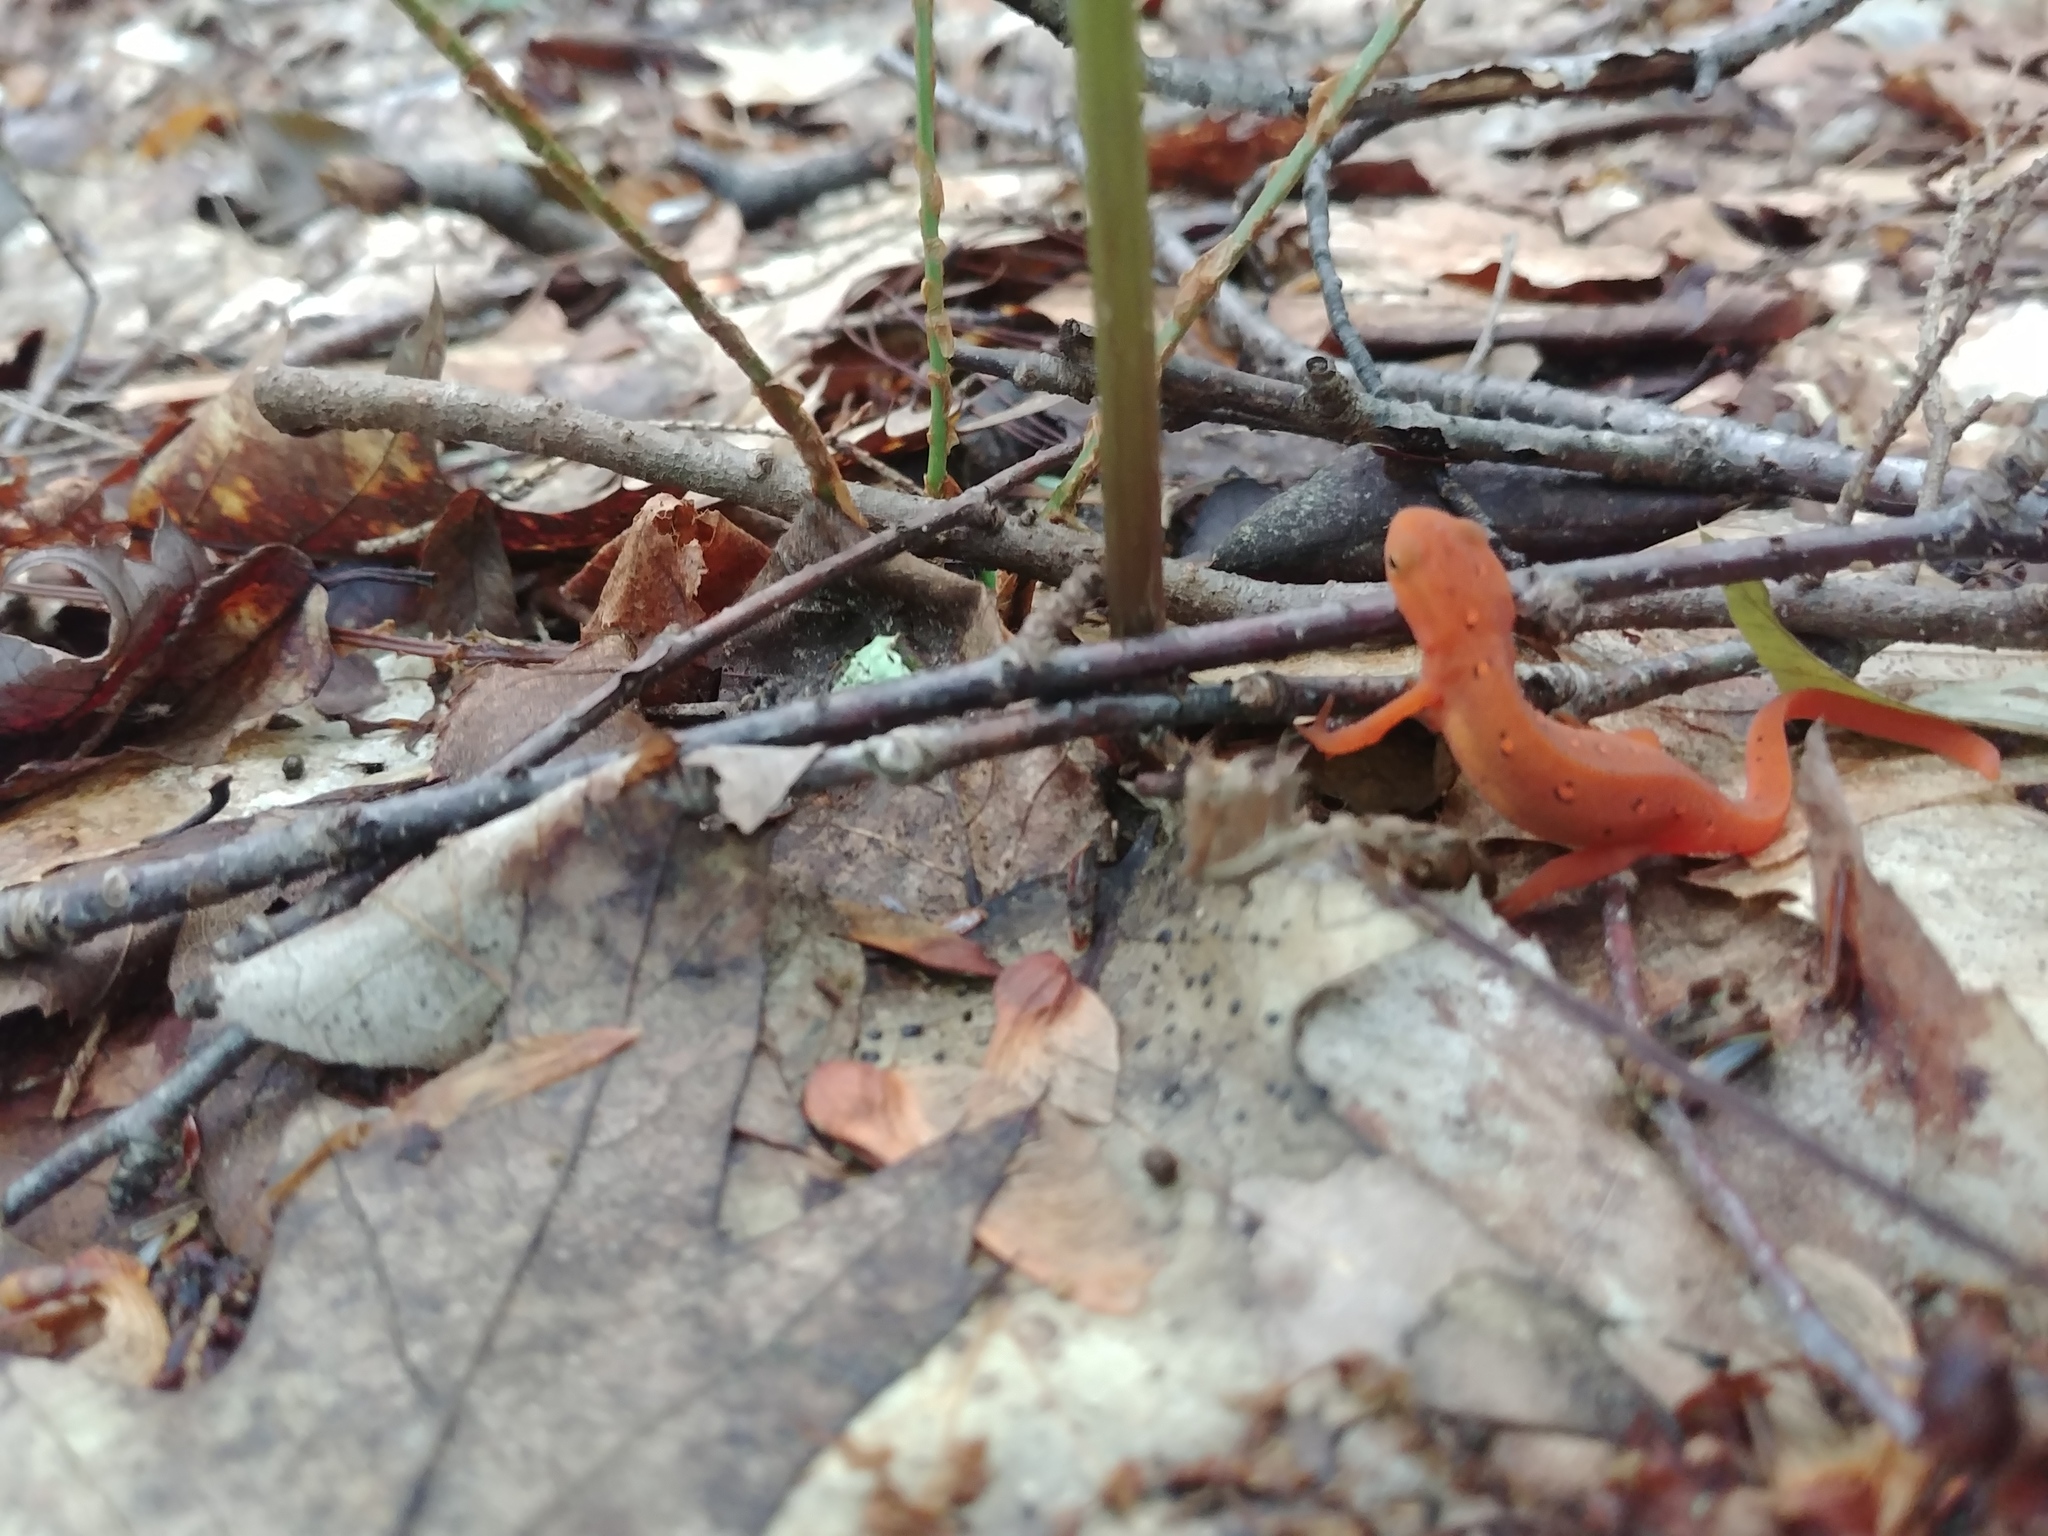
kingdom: Animalia
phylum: Chordata
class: Amphibia
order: Caudata
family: Salamandridae
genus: Notophthalmus
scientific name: Notophthalmus viridescens
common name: Eastern newt
